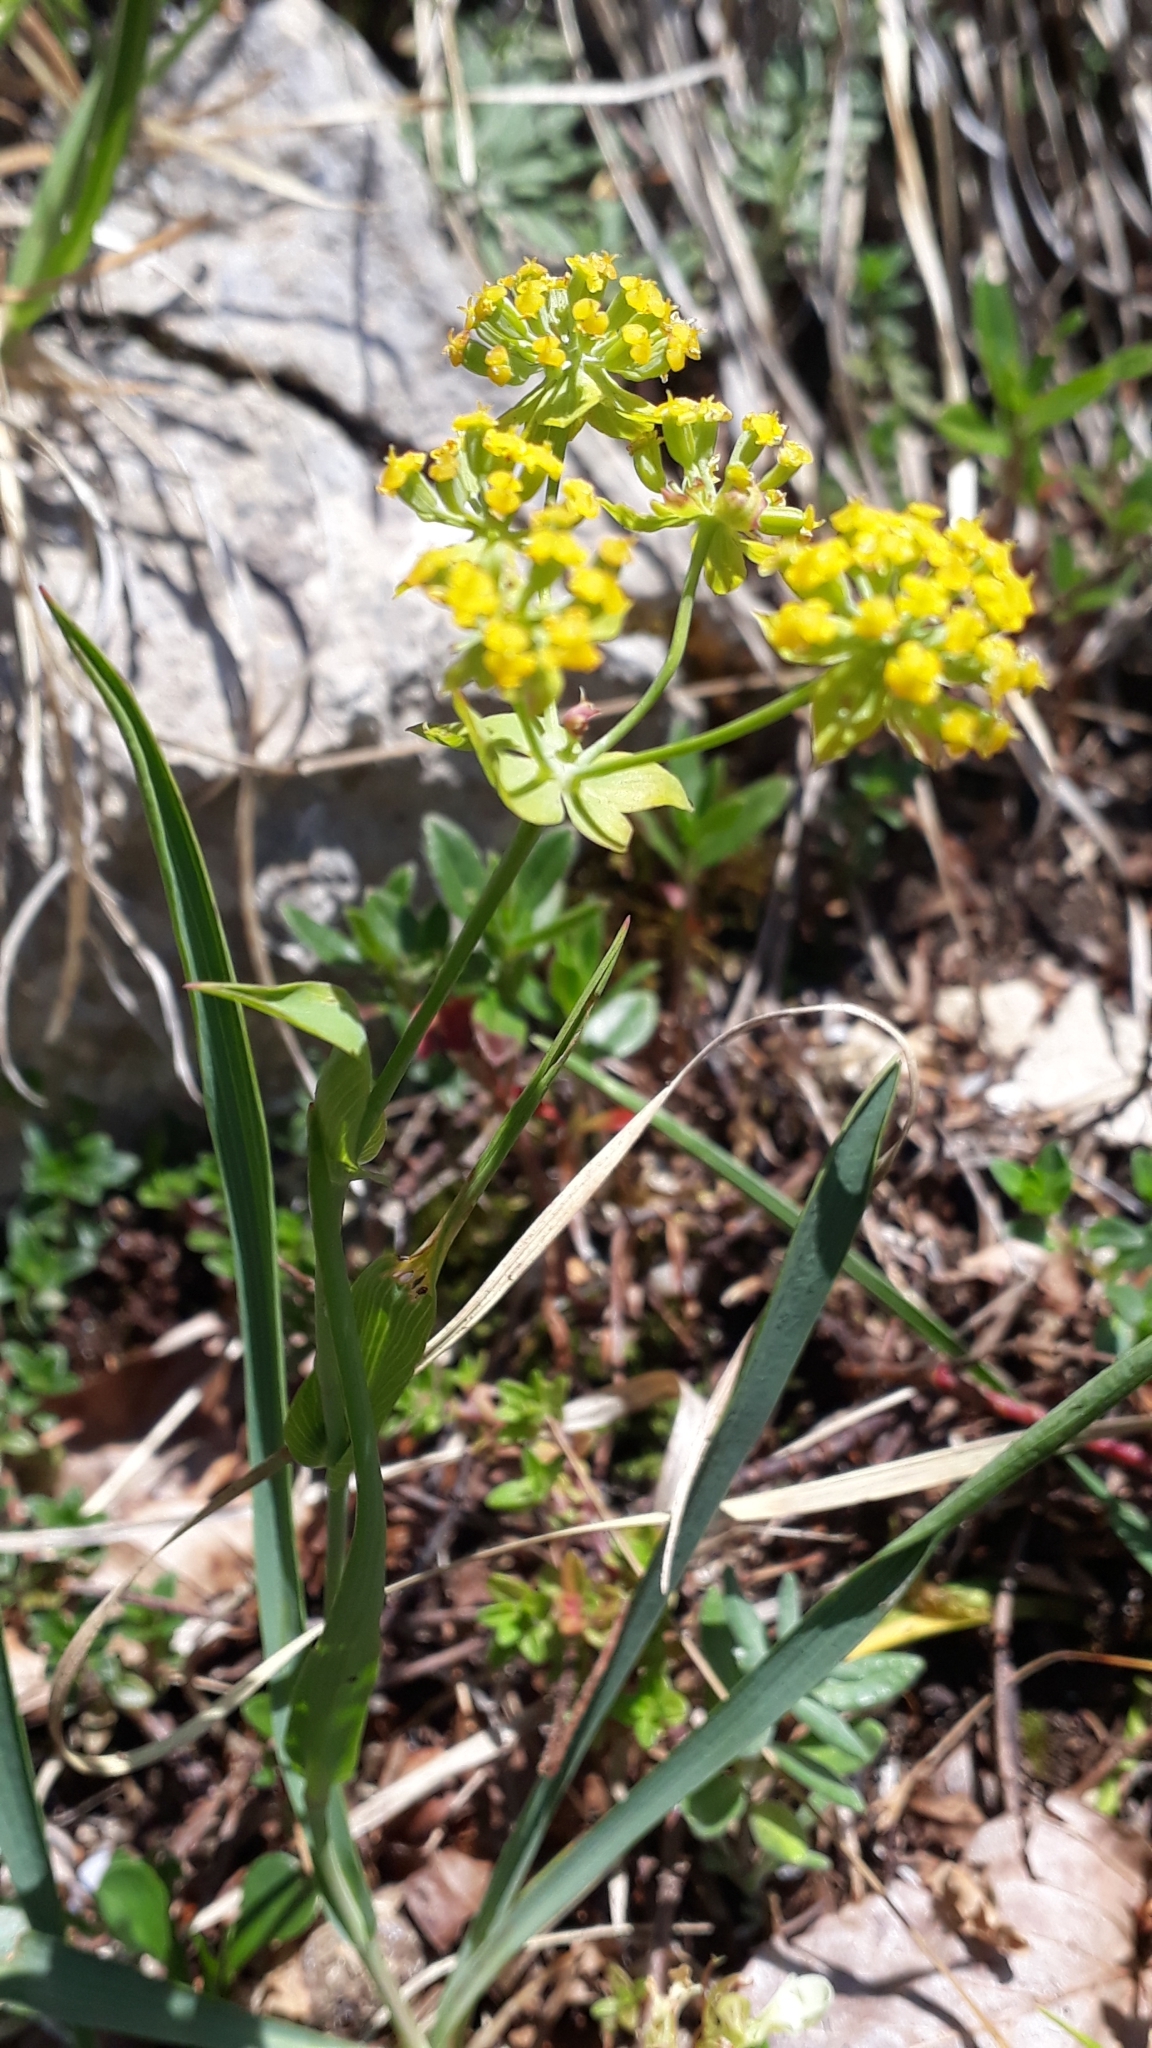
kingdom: Plantae
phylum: Tracheophyta
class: Magnoliopsida
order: Apiales
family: Apiaceae
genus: Bupleurum
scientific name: Bupleurum ranunculoides
